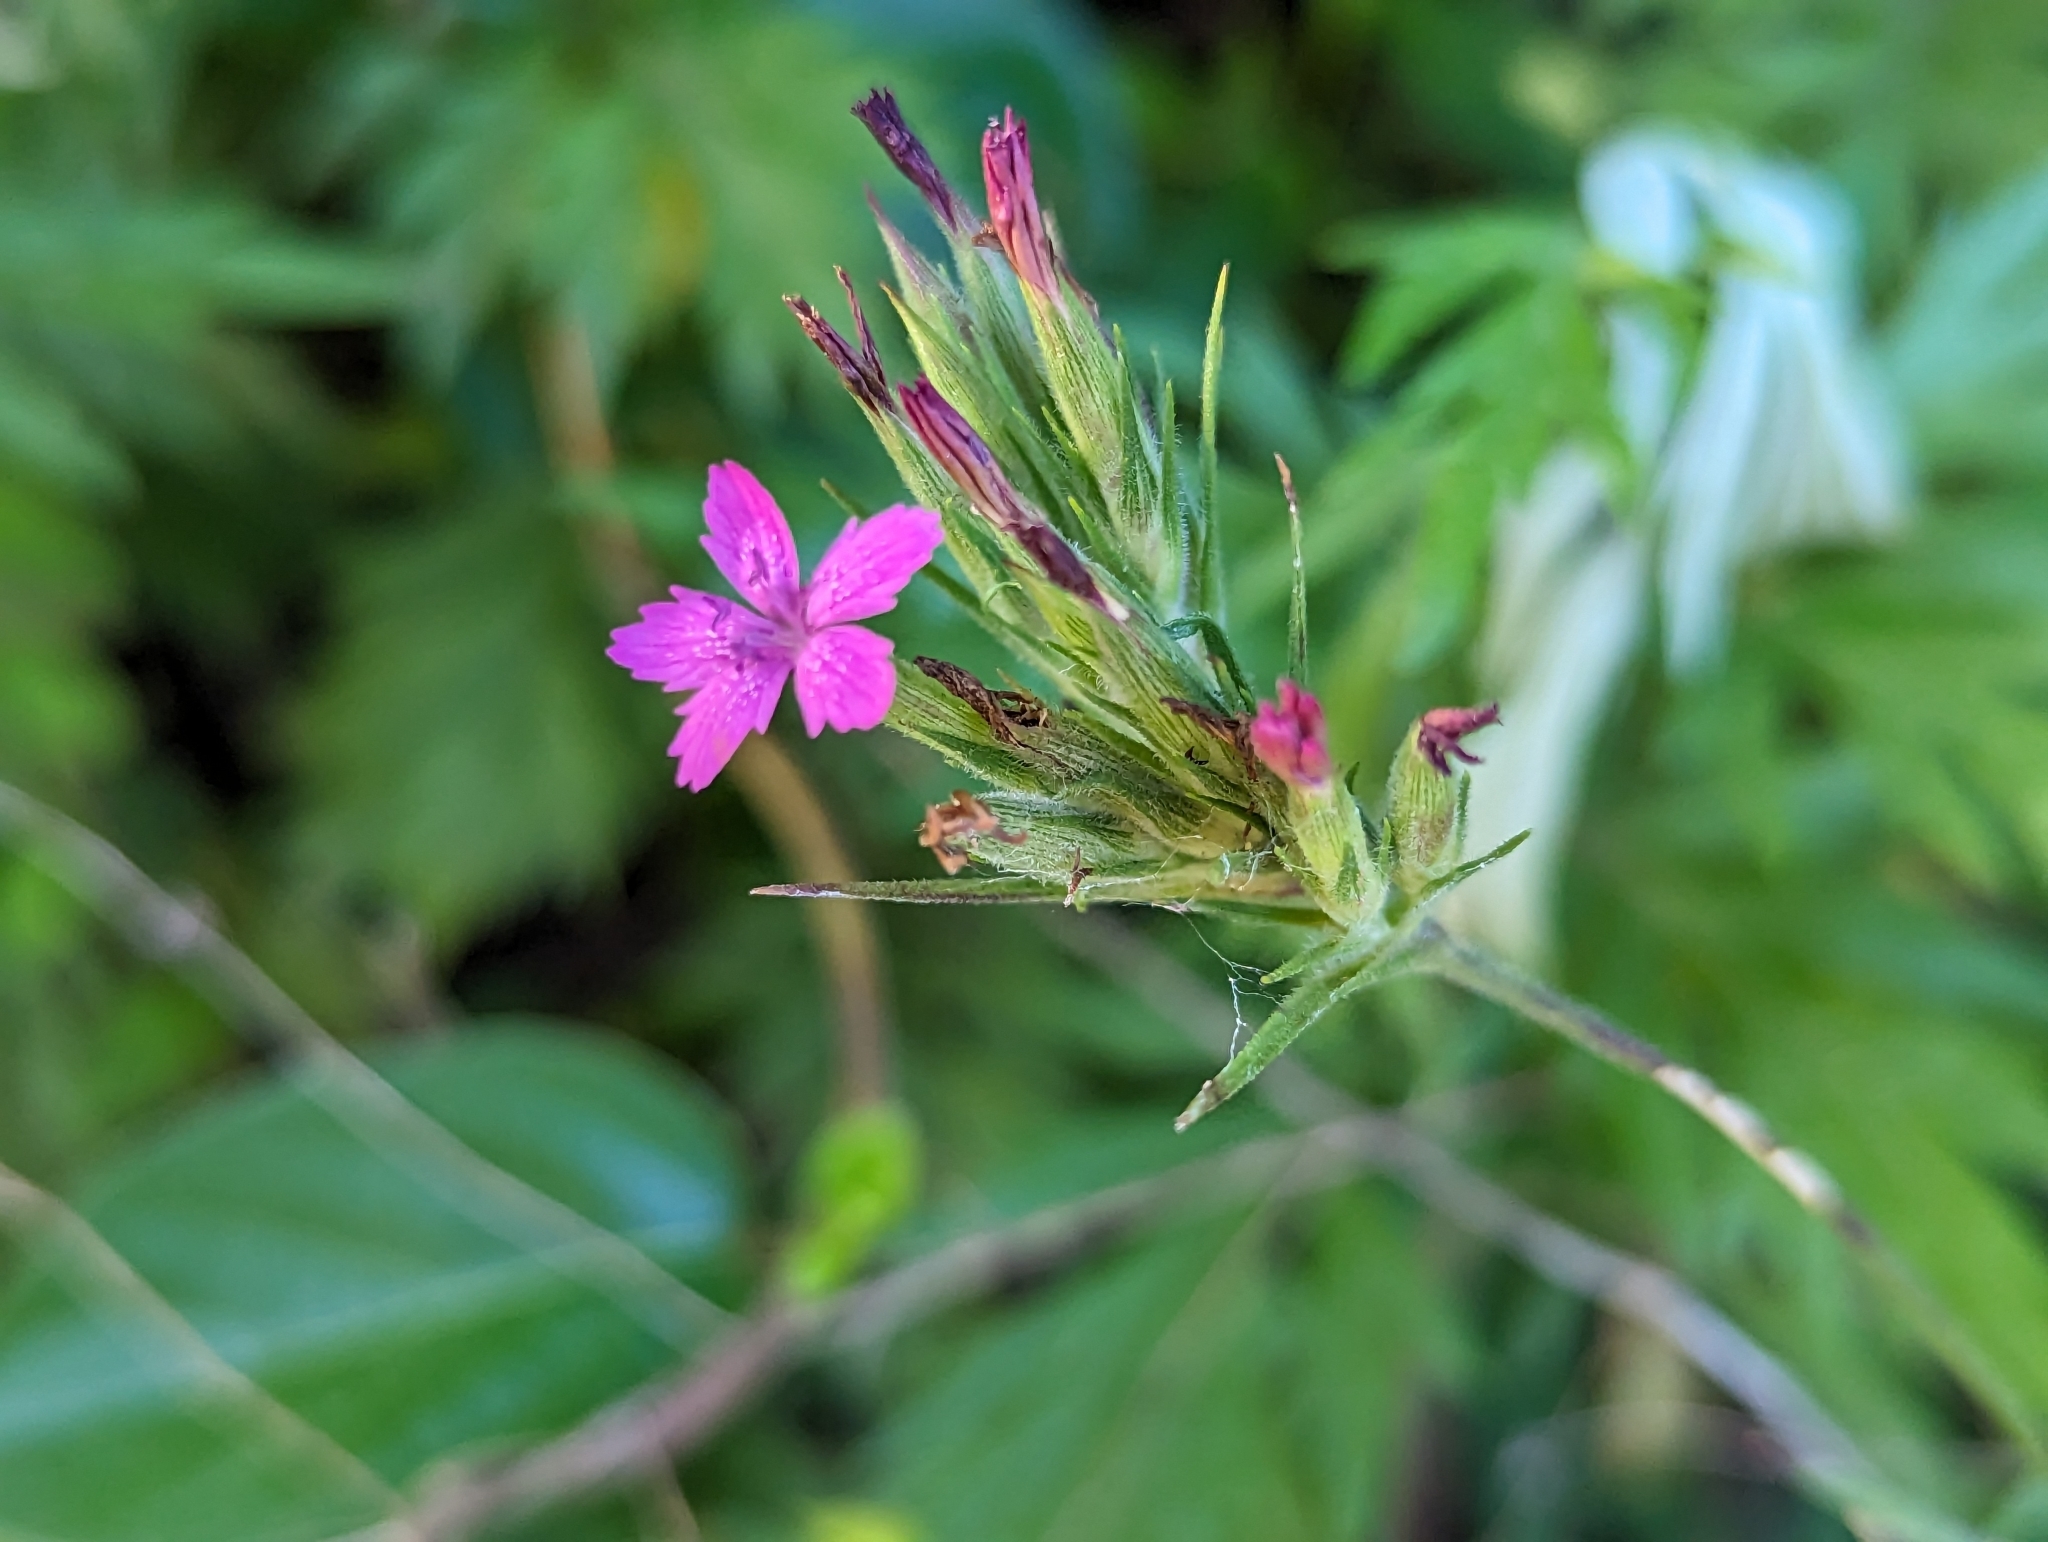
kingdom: Plantae
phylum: Tracheophyta
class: Magnoliopsida
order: Caryophyllales
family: Caryophyllaceae
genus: Dianthus
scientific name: Dianthus armeria
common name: Deptford pink
